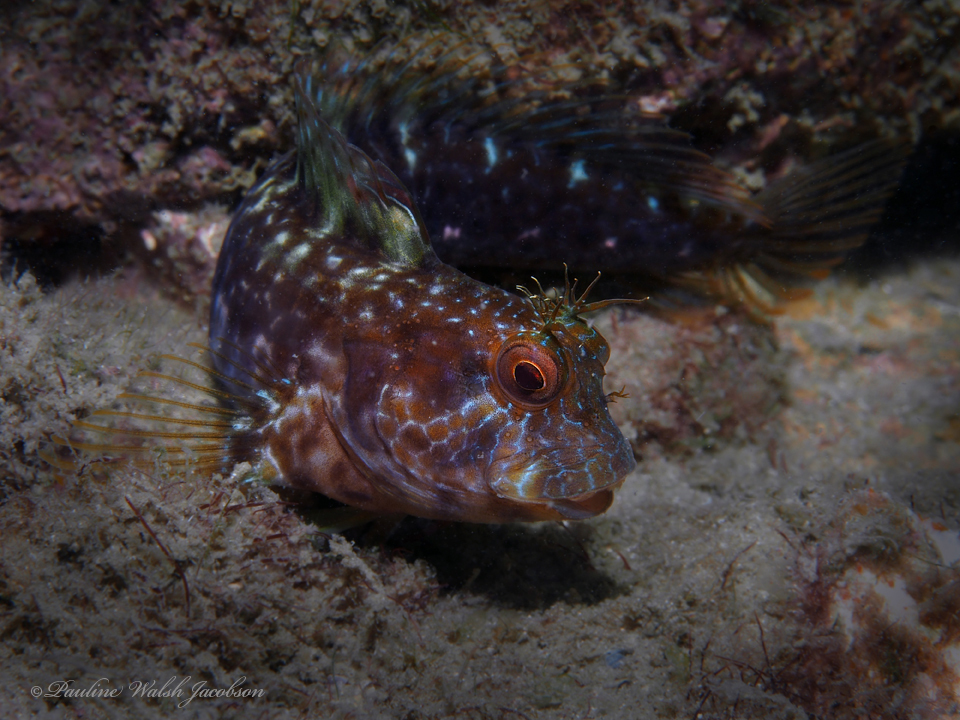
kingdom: Animalia
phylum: Chordata
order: Perciformes
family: Blenniidae
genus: Parablennius
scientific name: Parablennius marmoreus
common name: Seaweed blenny
